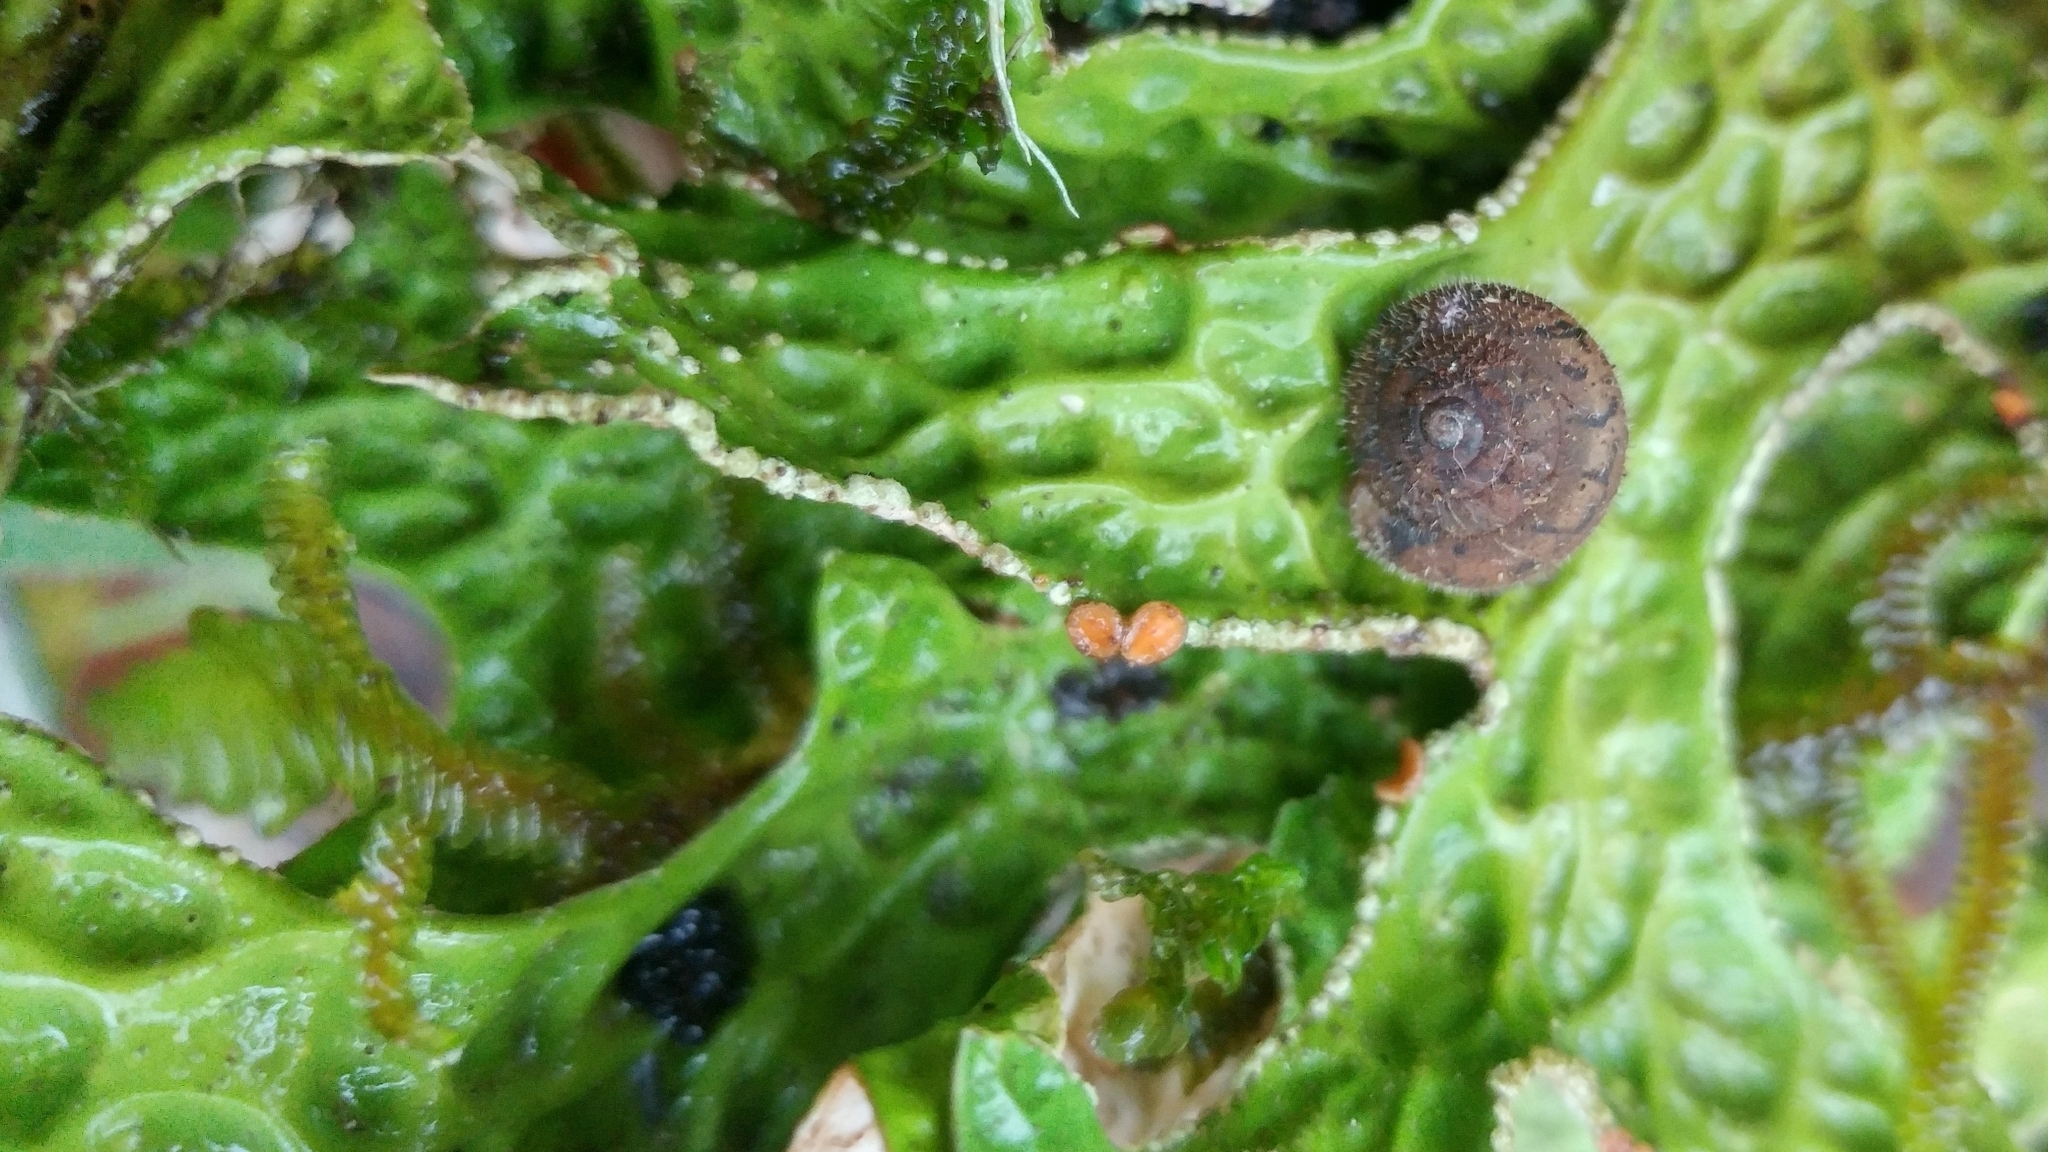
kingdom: Fungi
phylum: Ascomycota
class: Lecanoromycetes
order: Peltigerales
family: Lobariaceae
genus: Lobaria
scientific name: Lobaria pulmonaria
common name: Lungwort
